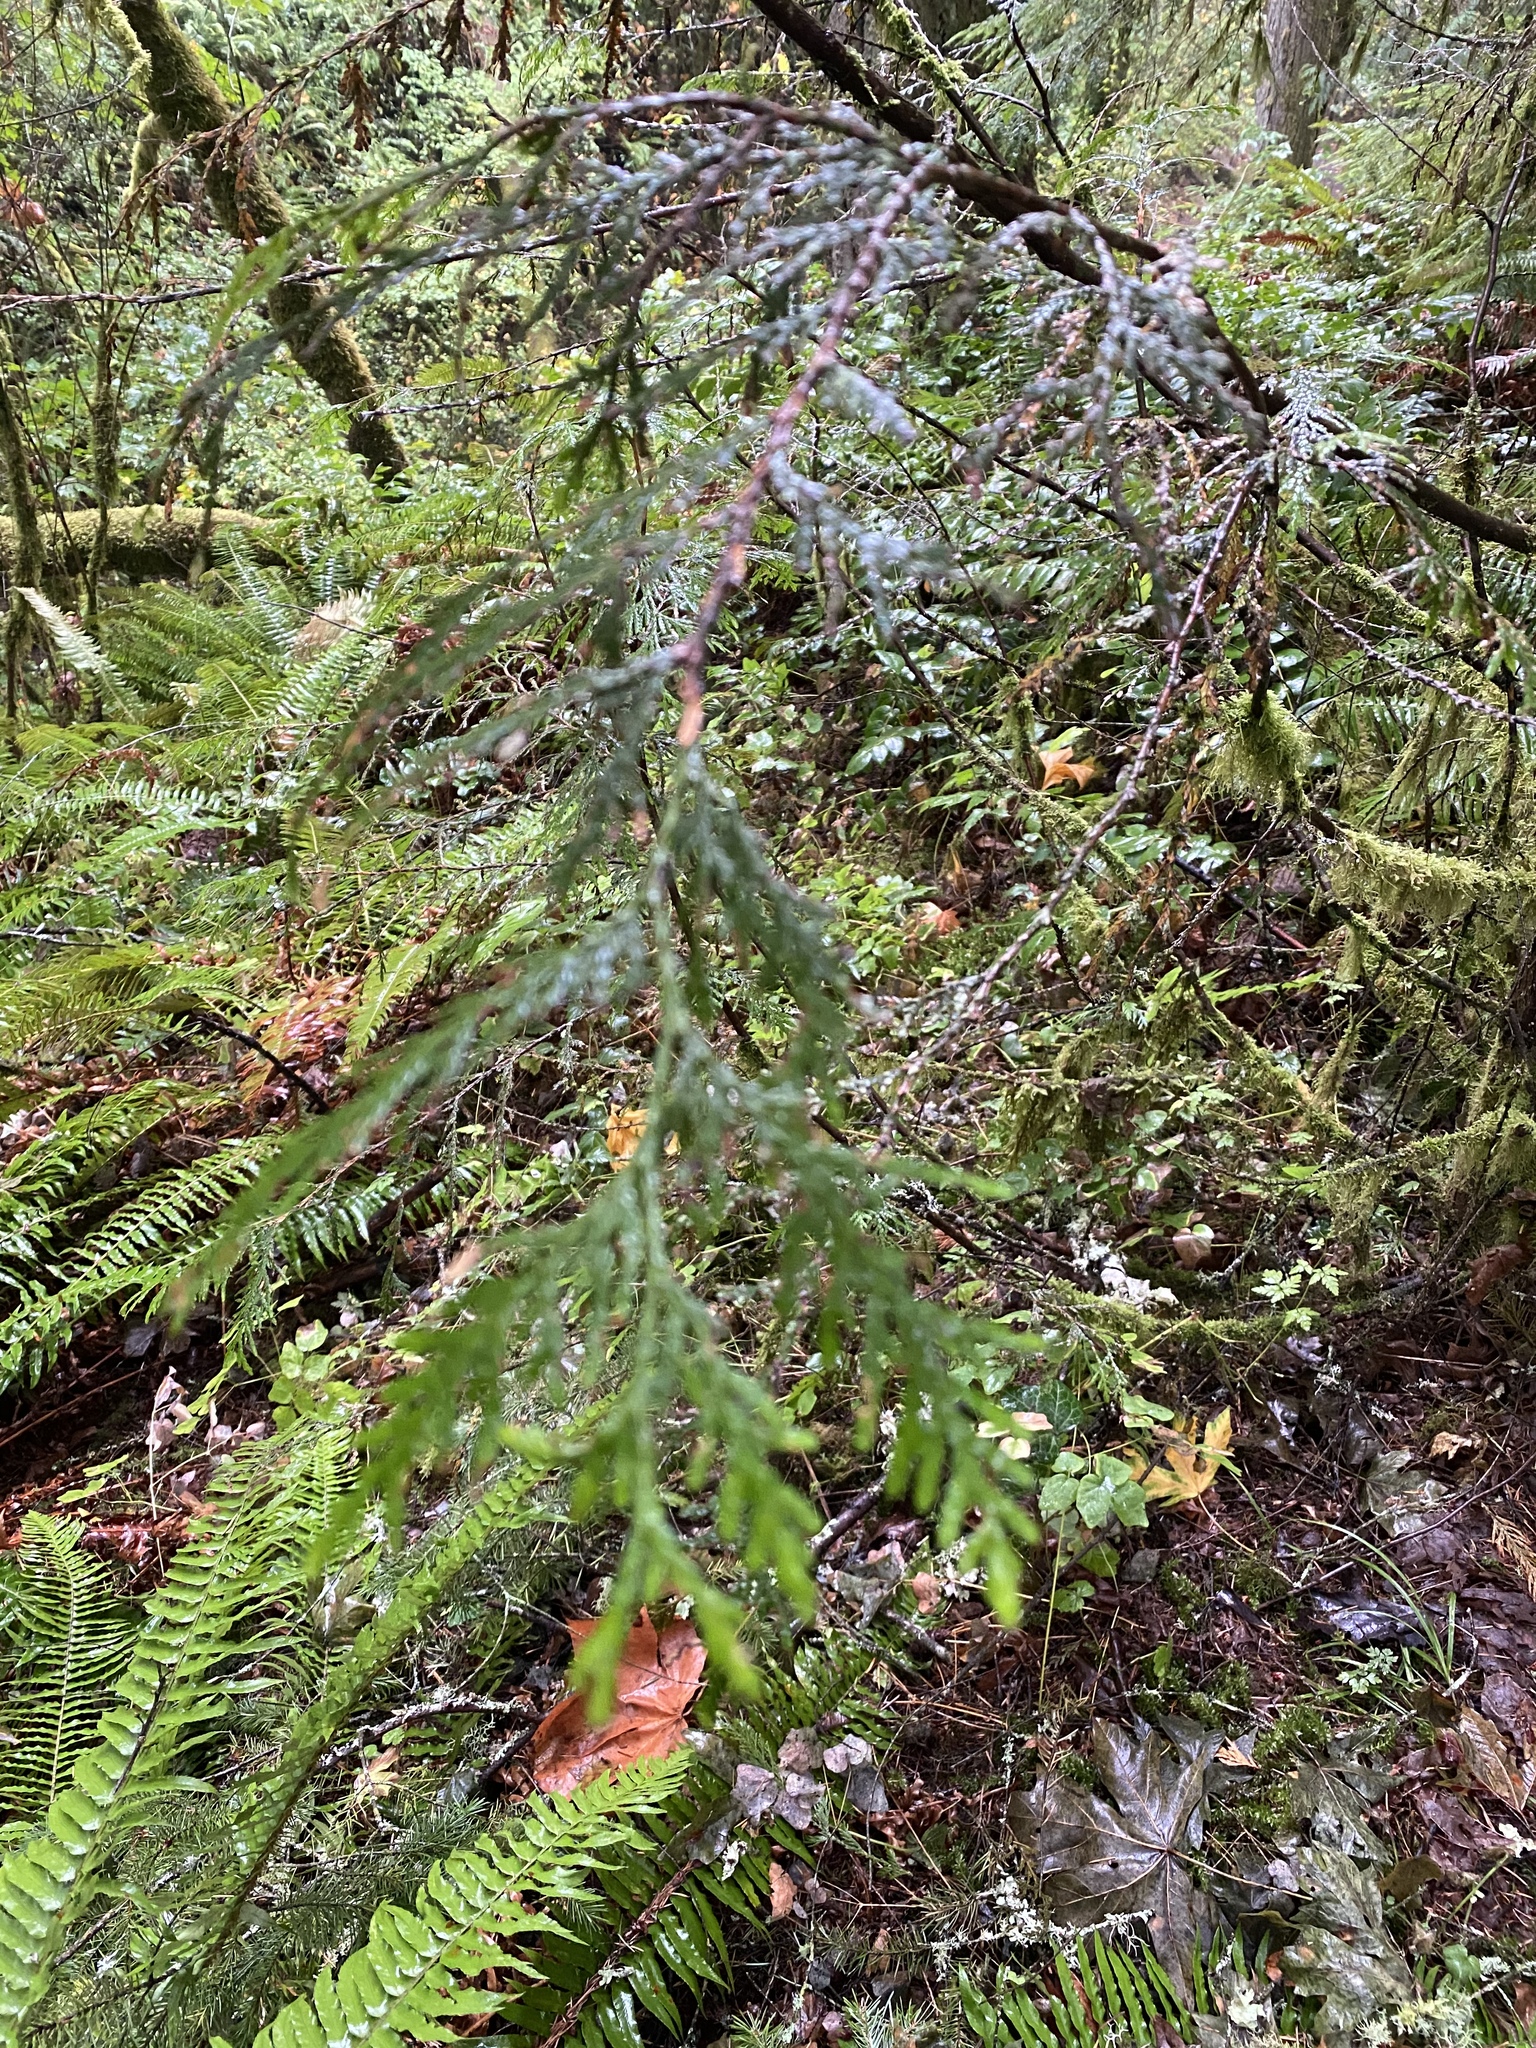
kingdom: Plantae
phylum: Tracheophyta
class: Pinopsida
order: Pinales
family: Cupressaceae
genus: Thuja
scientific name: Thuja plicata
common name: Western red-cedar
